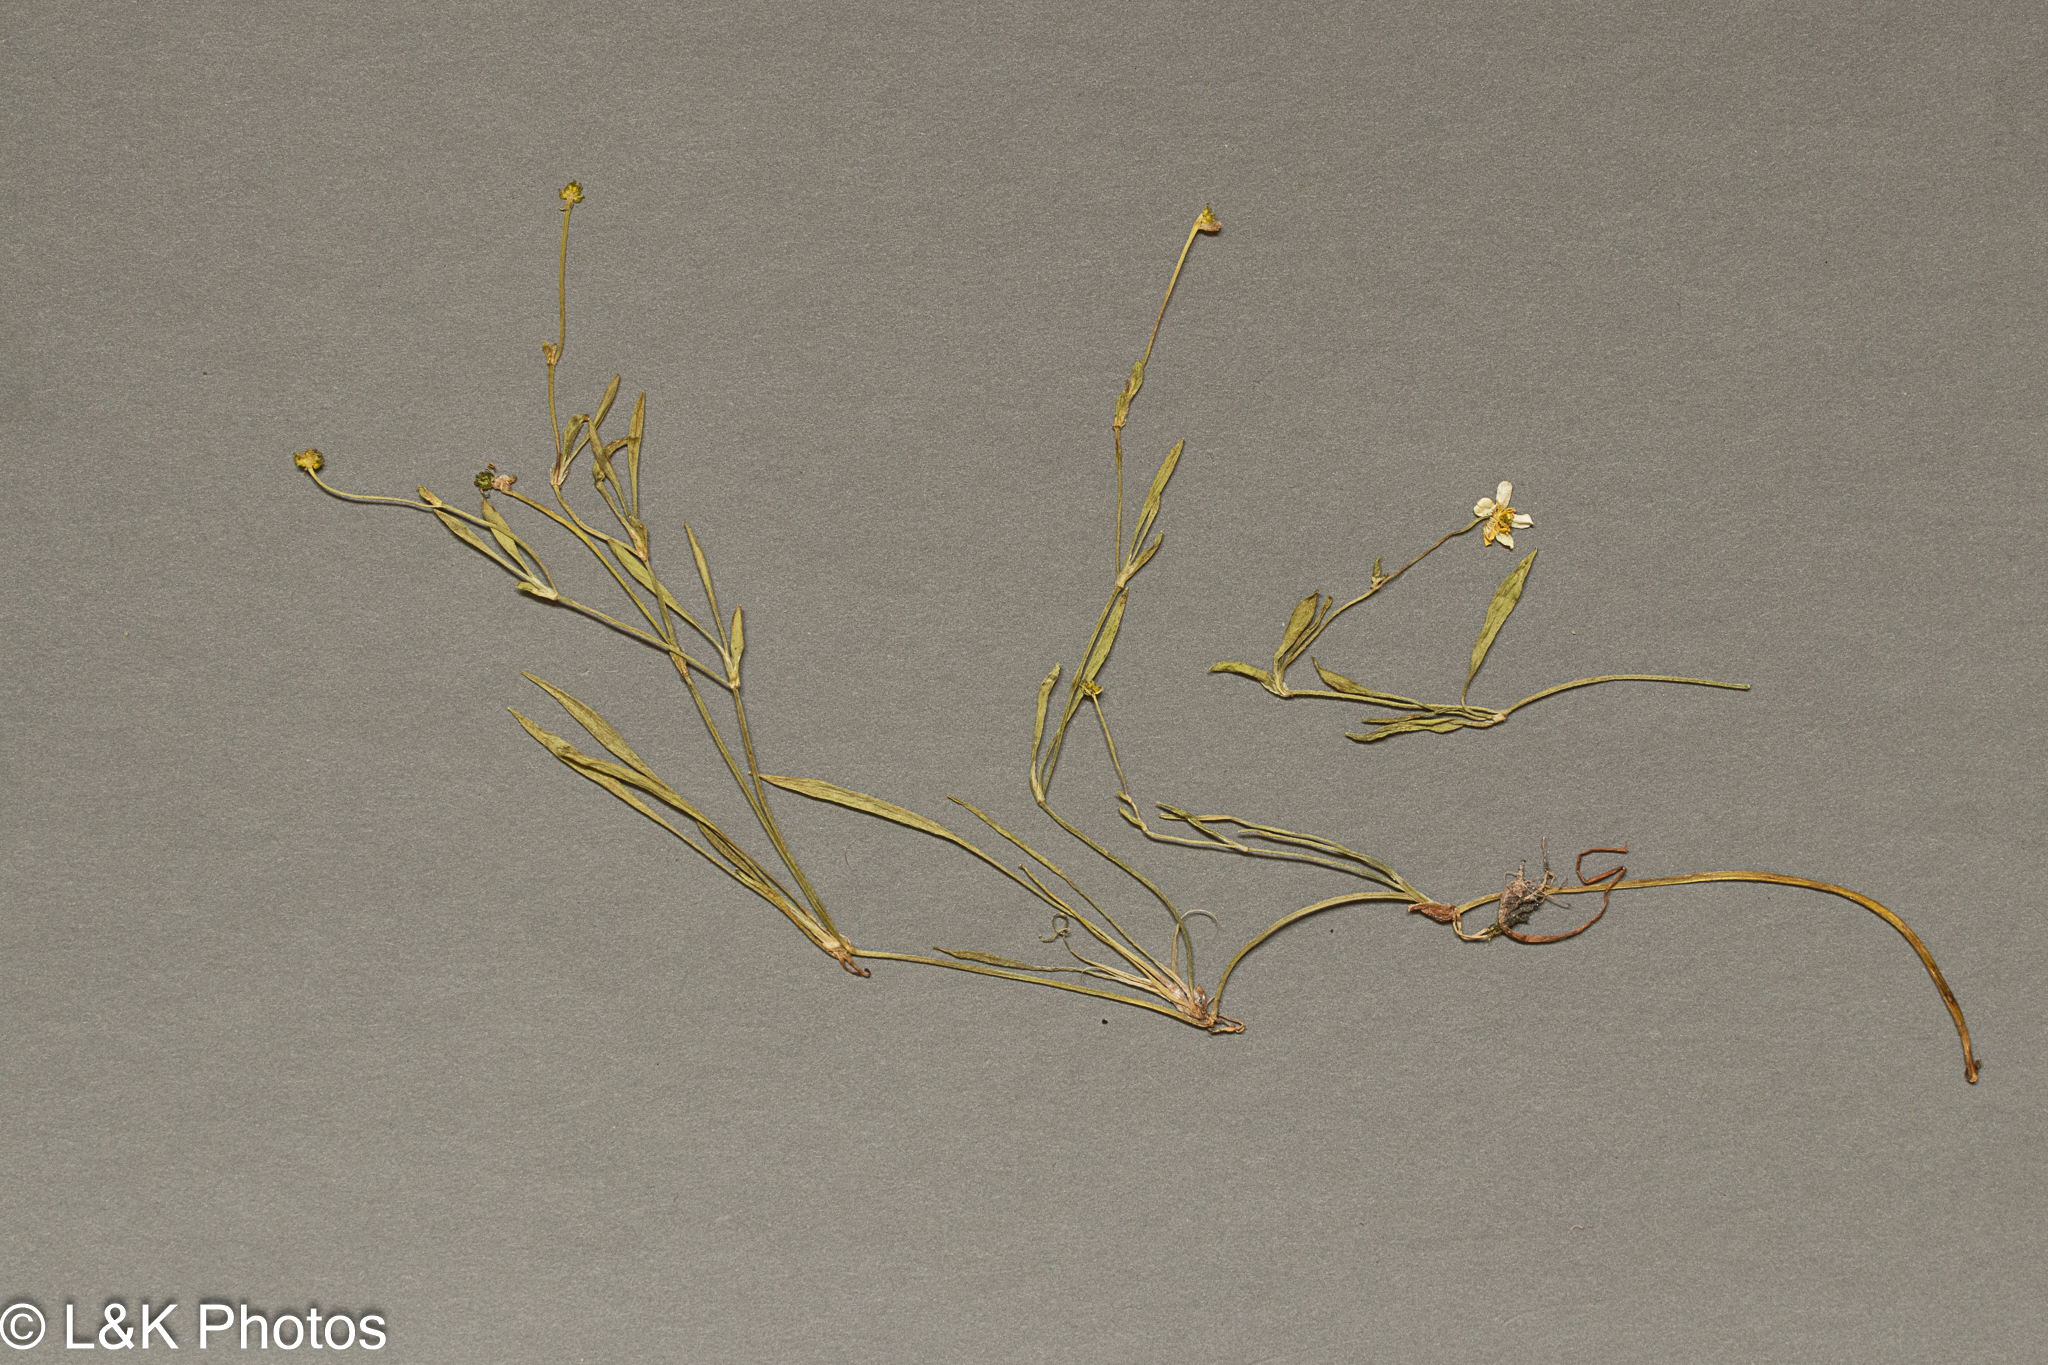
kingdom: Plantae
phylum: Tracheophyta
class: Magnoliopsida
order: Ranunculales
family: Ranunculaceae
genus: Ranunculus
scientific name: Ranunculus flammula
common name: Lesser spearwort
